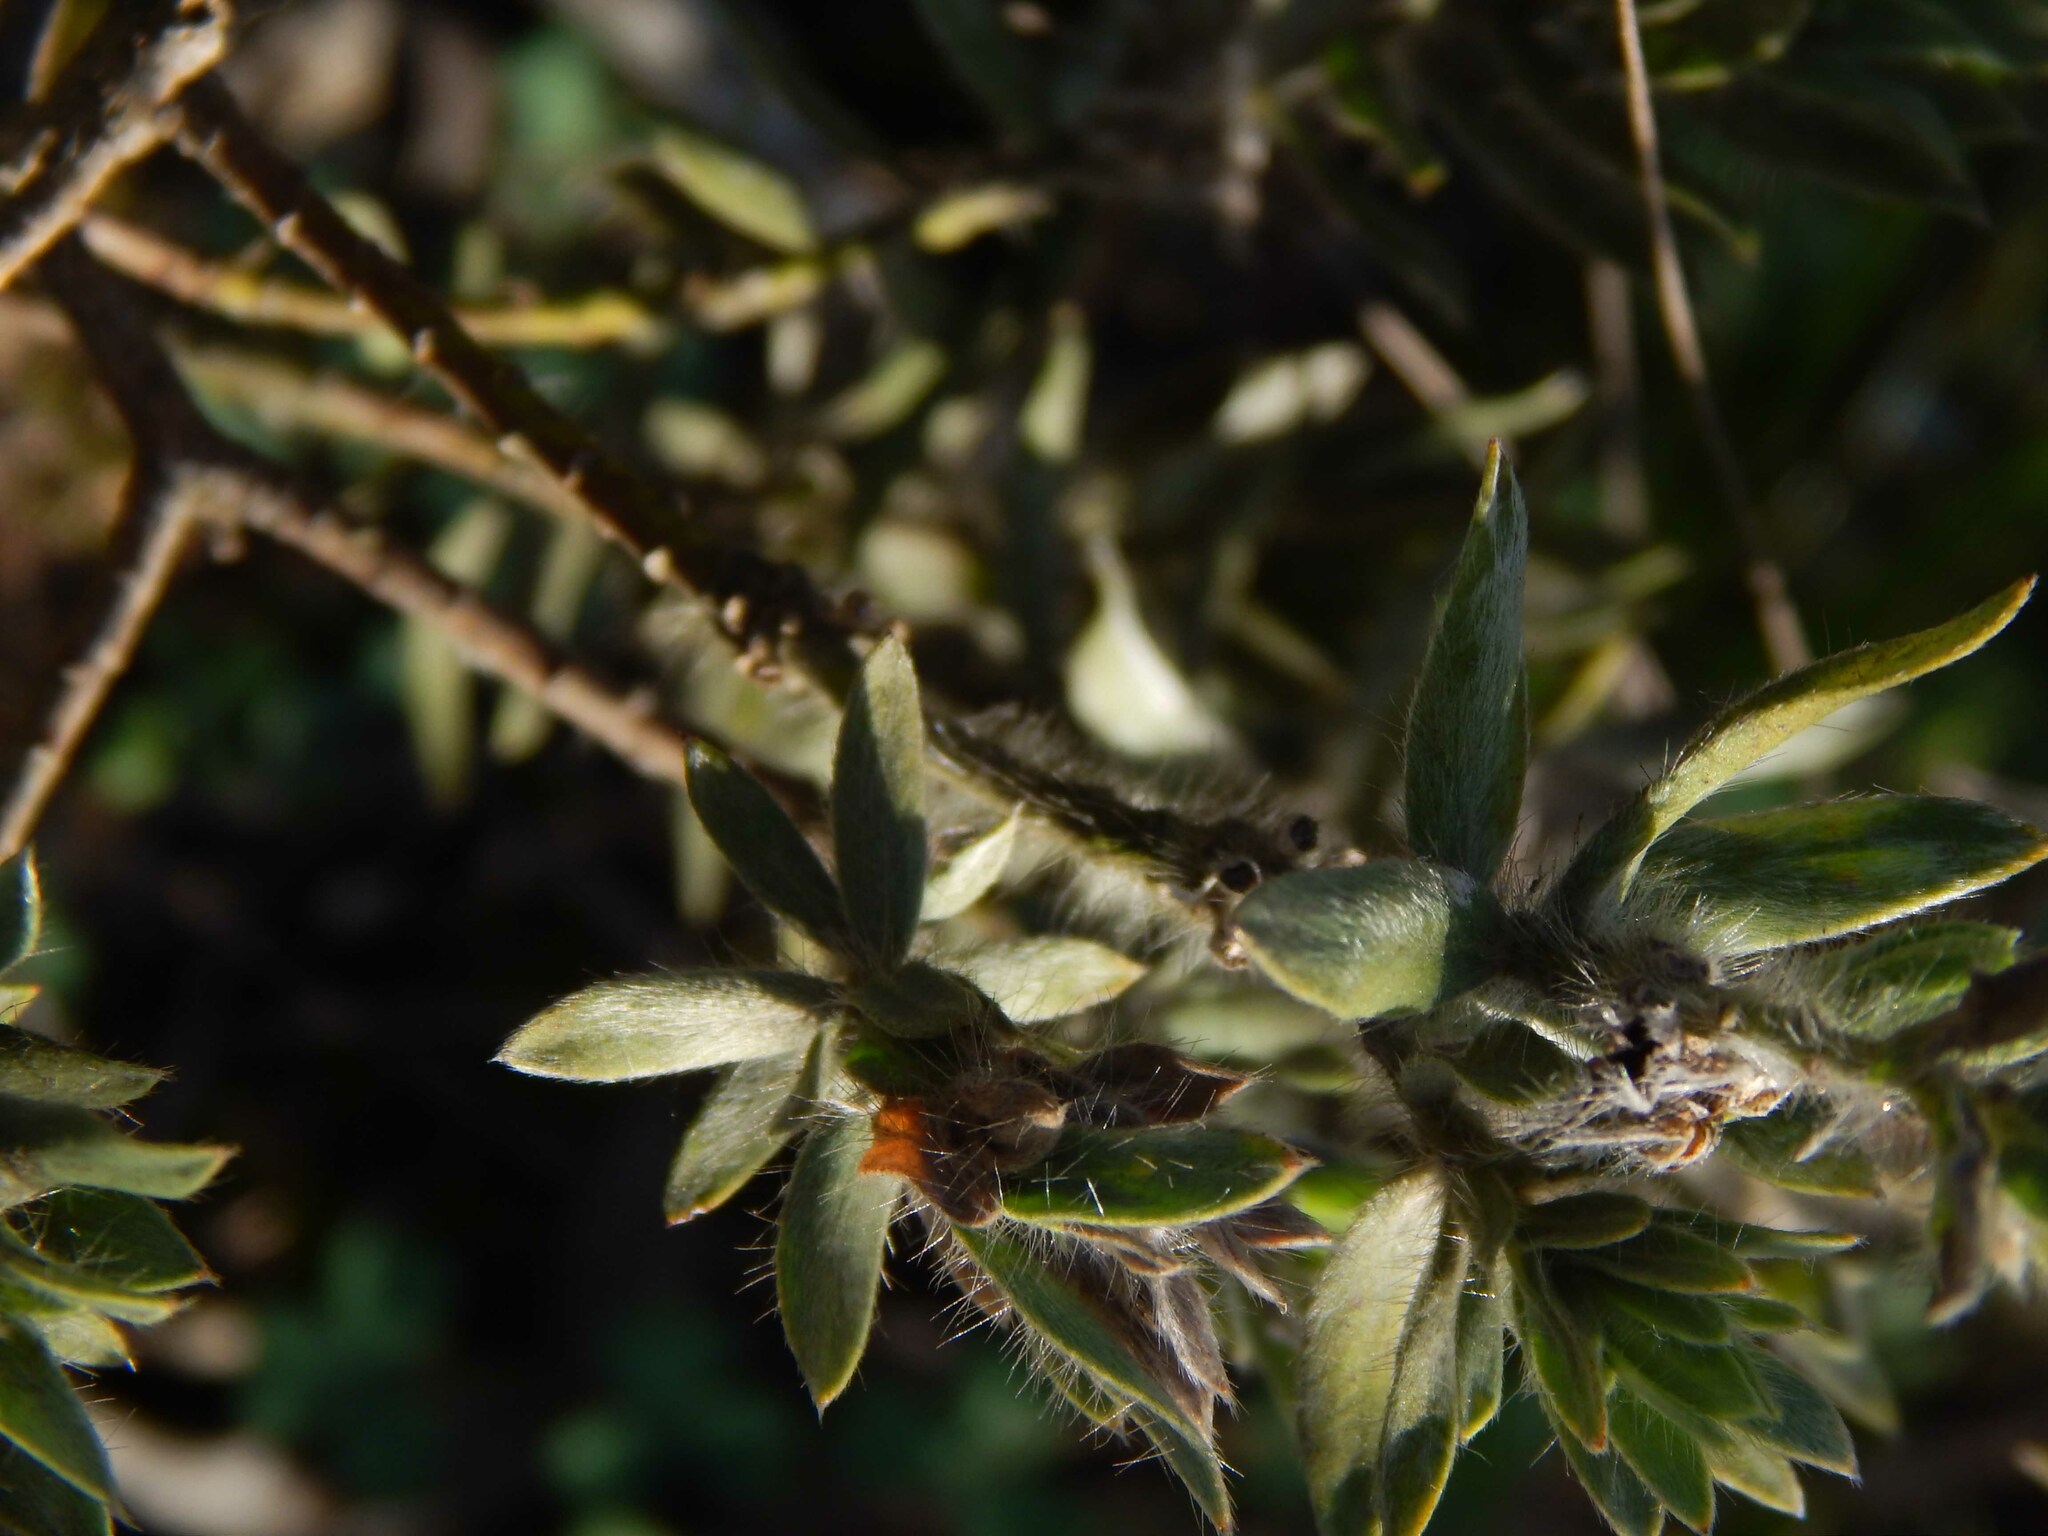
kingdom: Plantae
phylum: Tracheophyta
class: Magnoliopsida
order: Fabales
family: Fabaceae
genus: Xiphotheca
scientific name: Xiphotheca lanceolata
